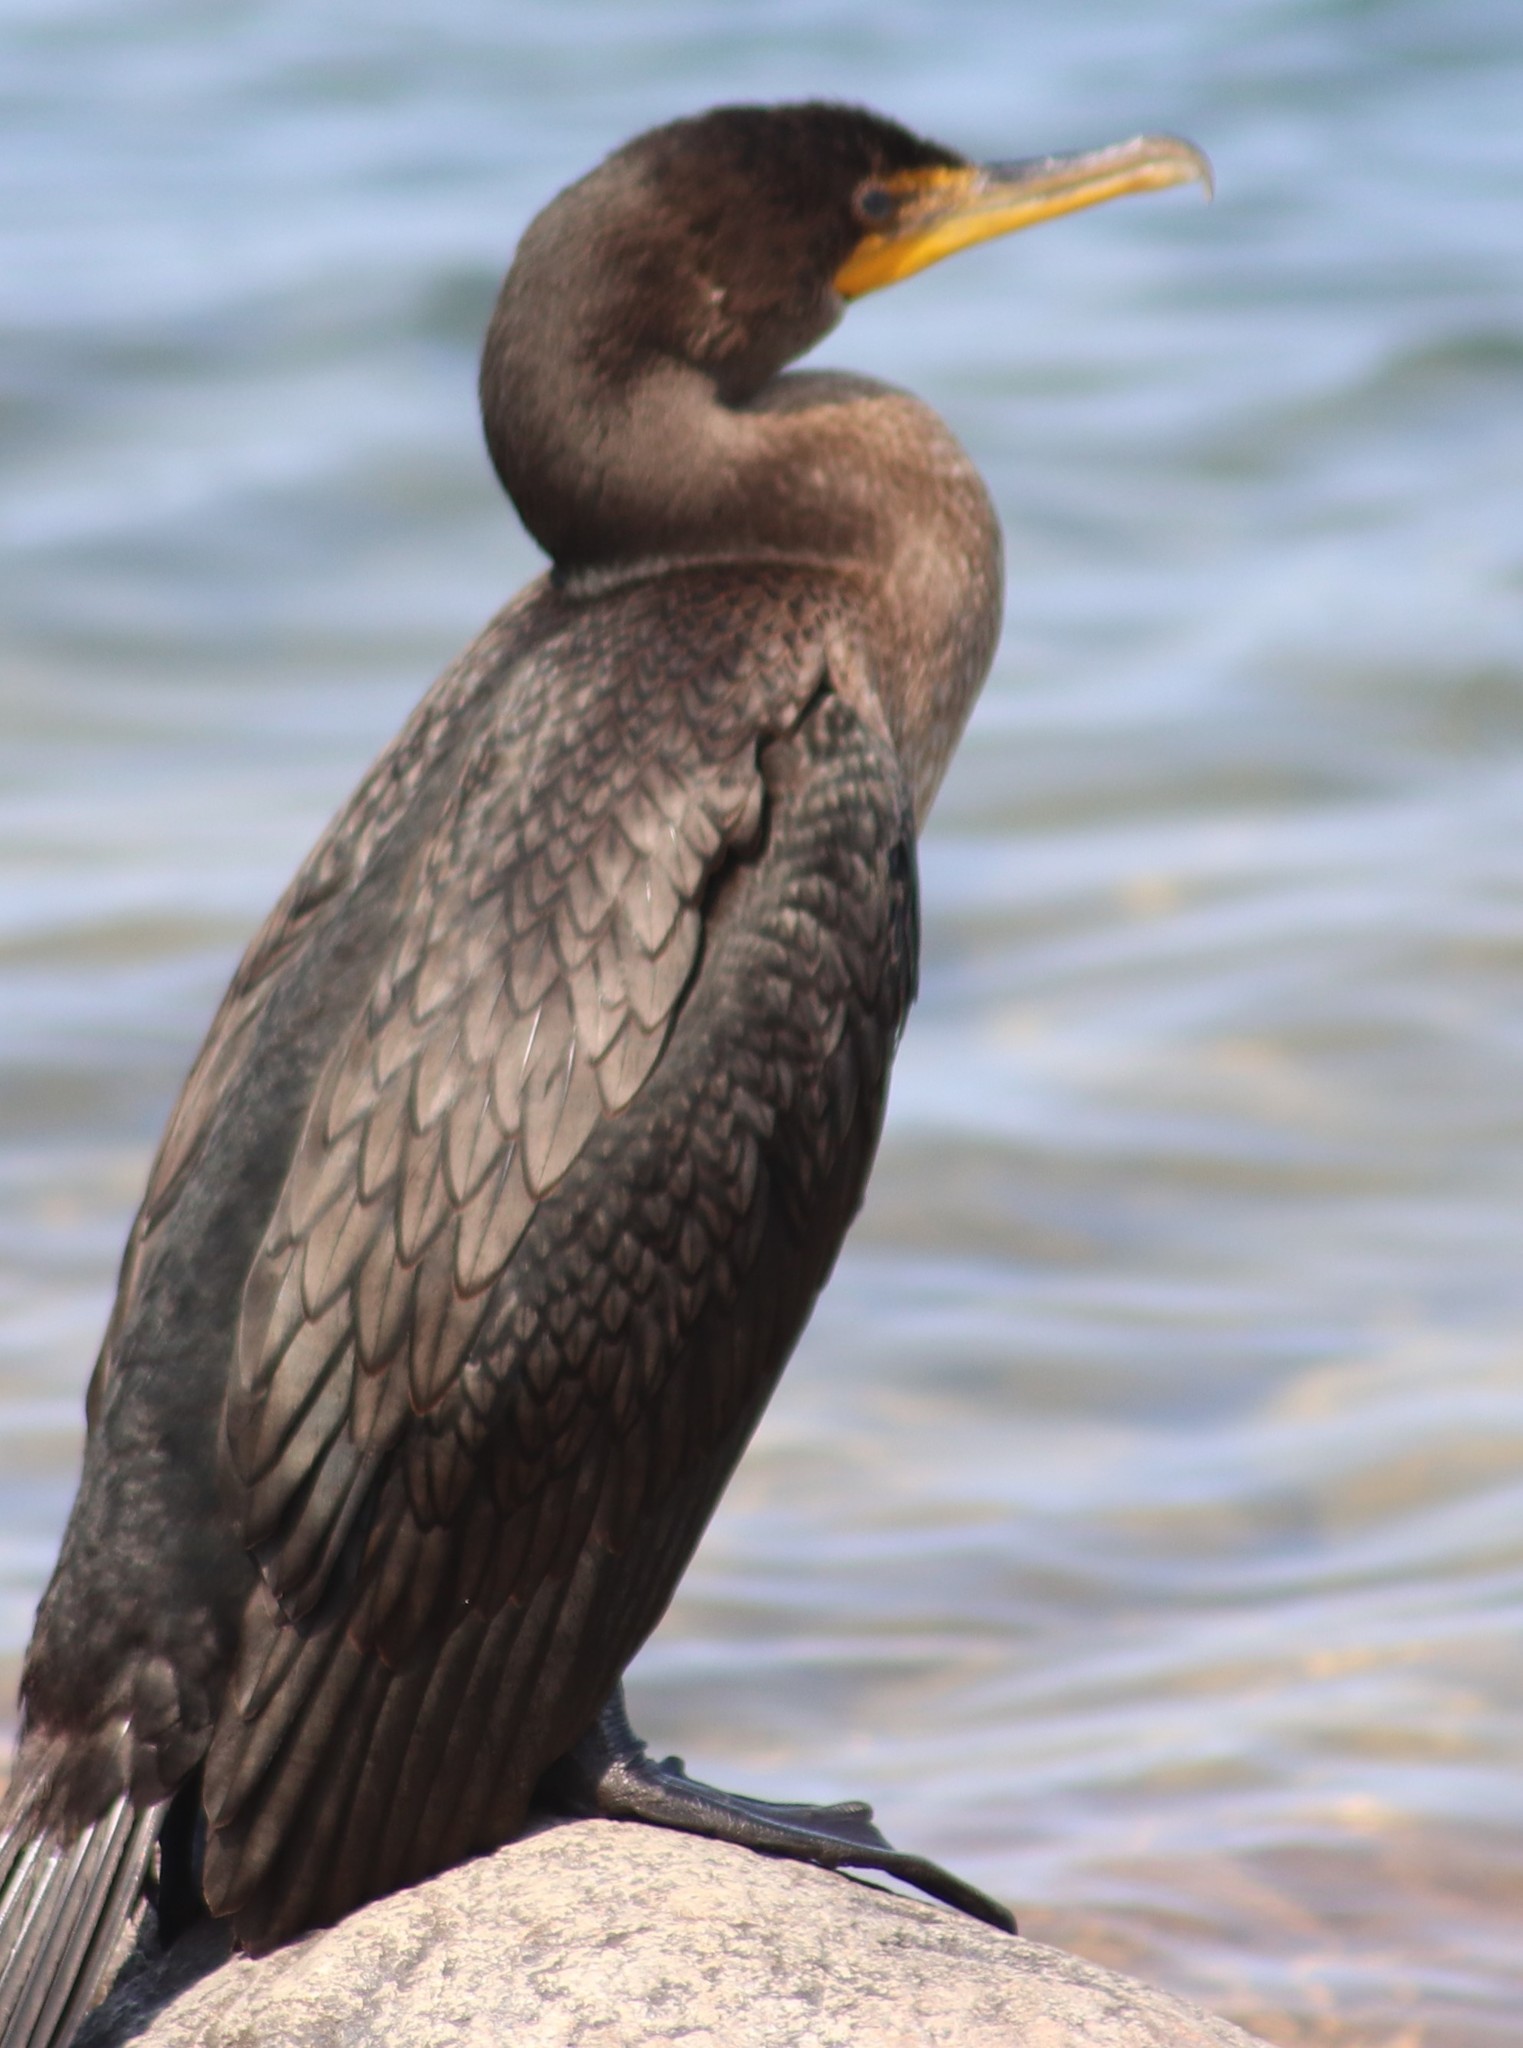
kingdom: Animalia
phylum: Chordata
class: Aves
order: Suliformes
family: Phalacrocoracidae
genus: Phalacrocorax
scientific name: Phalacrocorax auritus
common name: Double-crested cormorant
